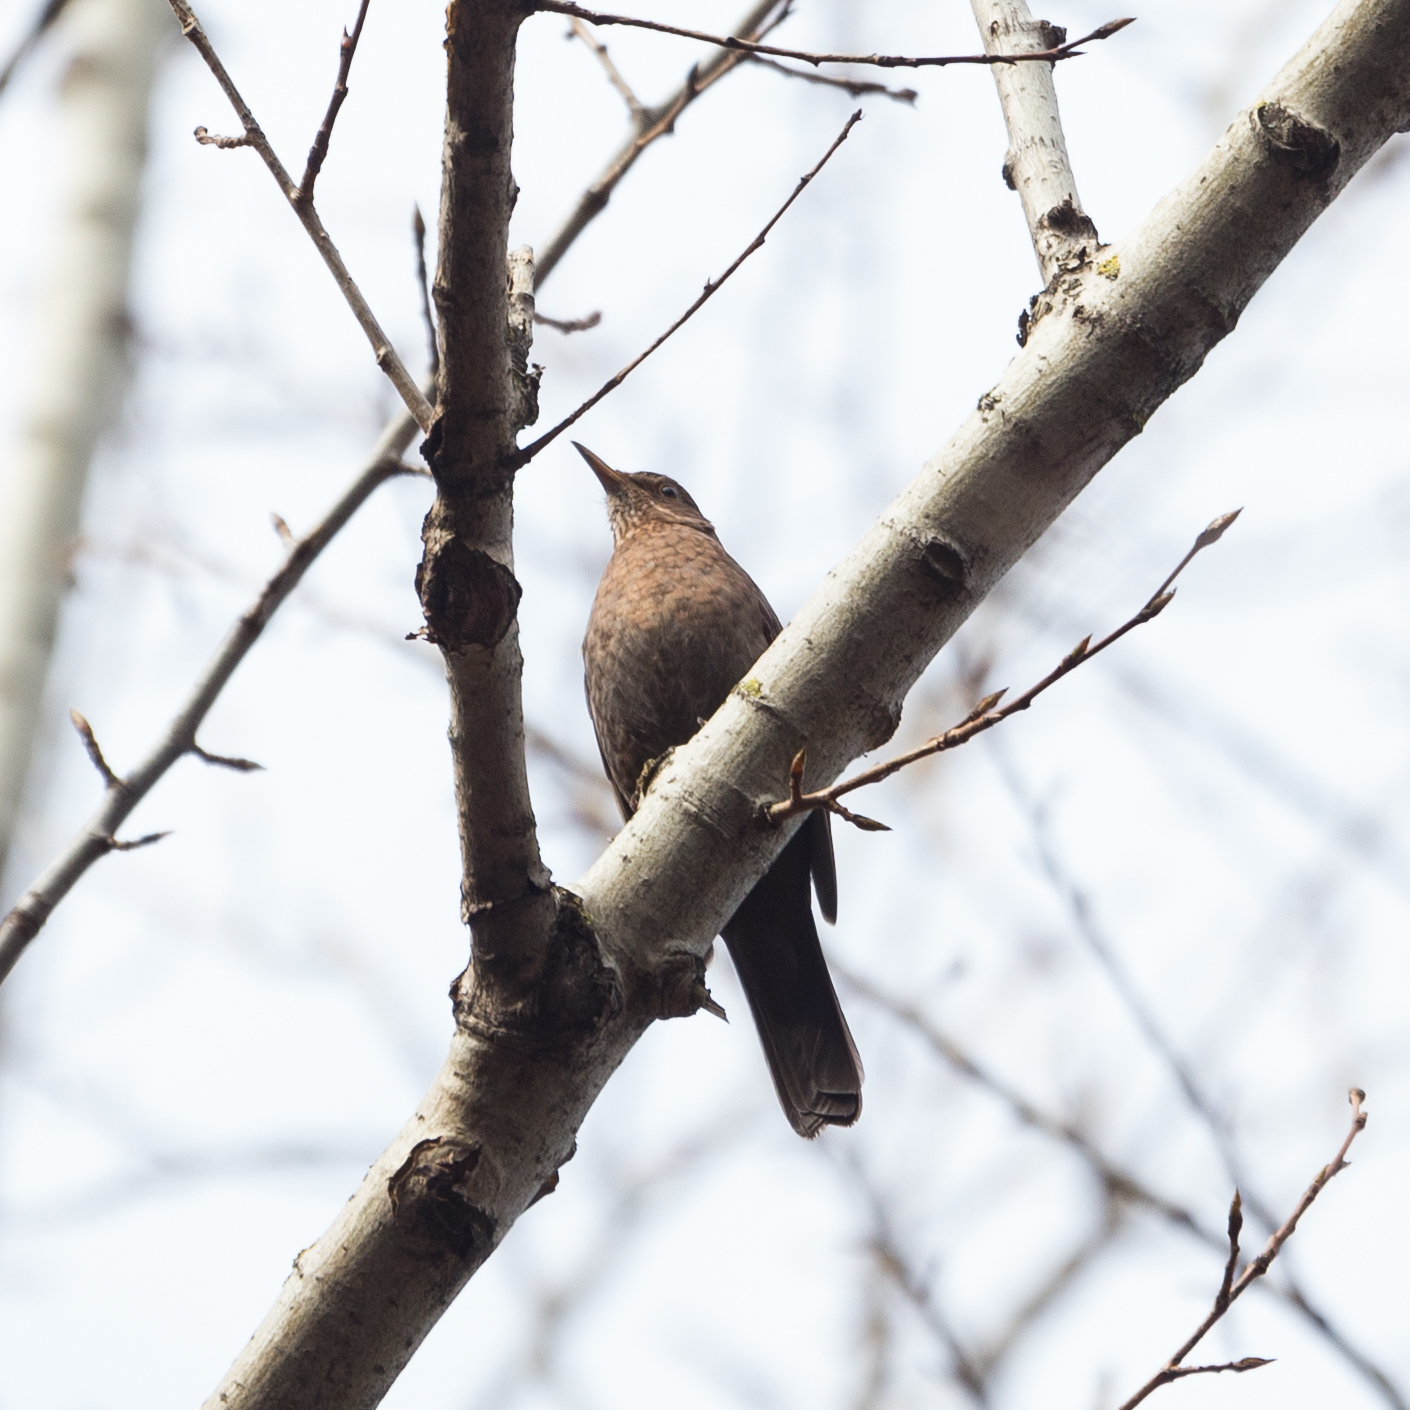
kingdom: Animalia
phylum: Chordata
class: Aves
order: Passeriformes
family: Turdidae
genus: Turdus
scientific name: Turdus merula
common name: Common blackbird
